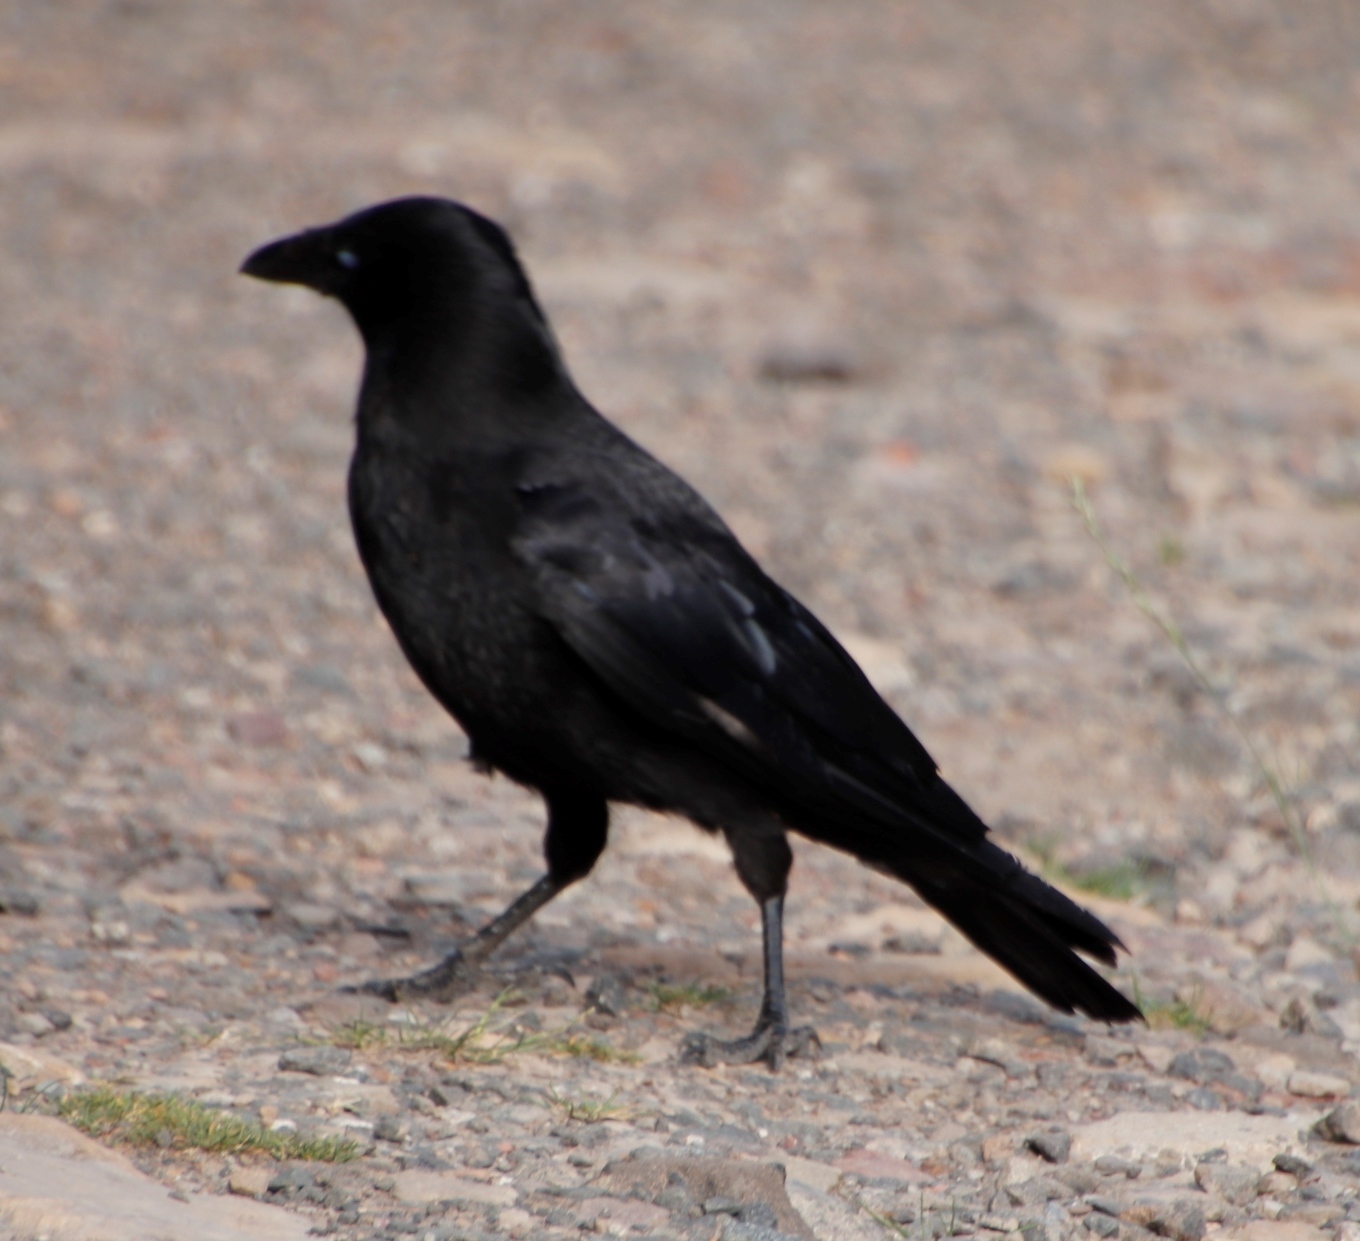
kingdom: Animalia
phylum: Chordata
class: Aves
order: Passeriformes
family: Corvidae
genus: Corvus
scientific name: Corvus corone
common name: Carrion crow
